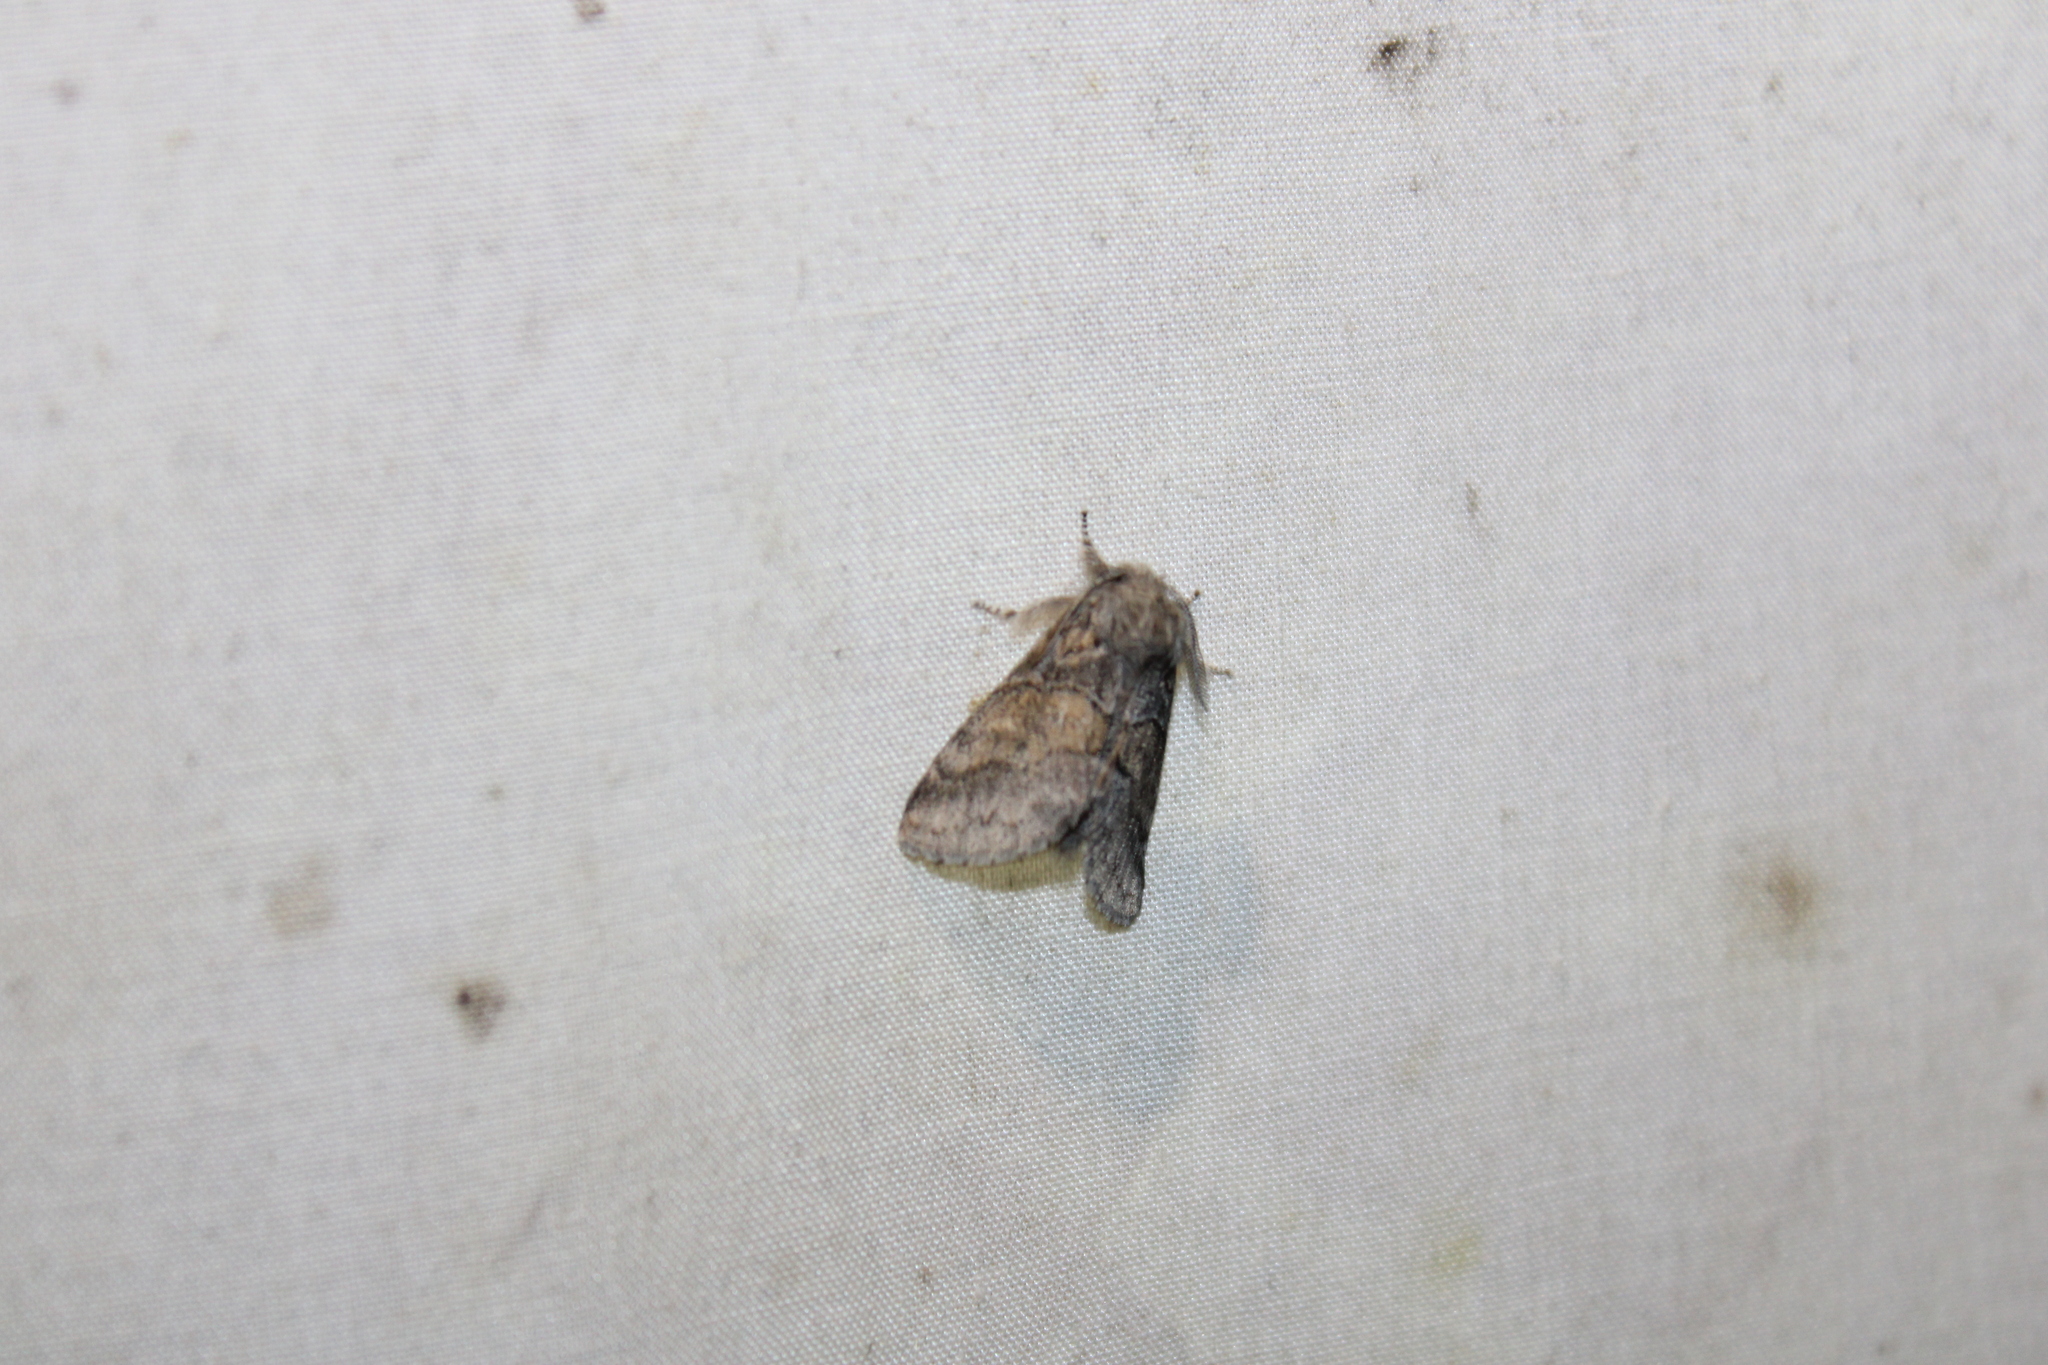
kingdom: Animalia
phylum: Arthropoda
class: Insecta
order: Lepidoptera
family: Notodontidae
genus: Gluphisia
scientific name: Gluphisia septentrionis
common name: Common gluphisia
